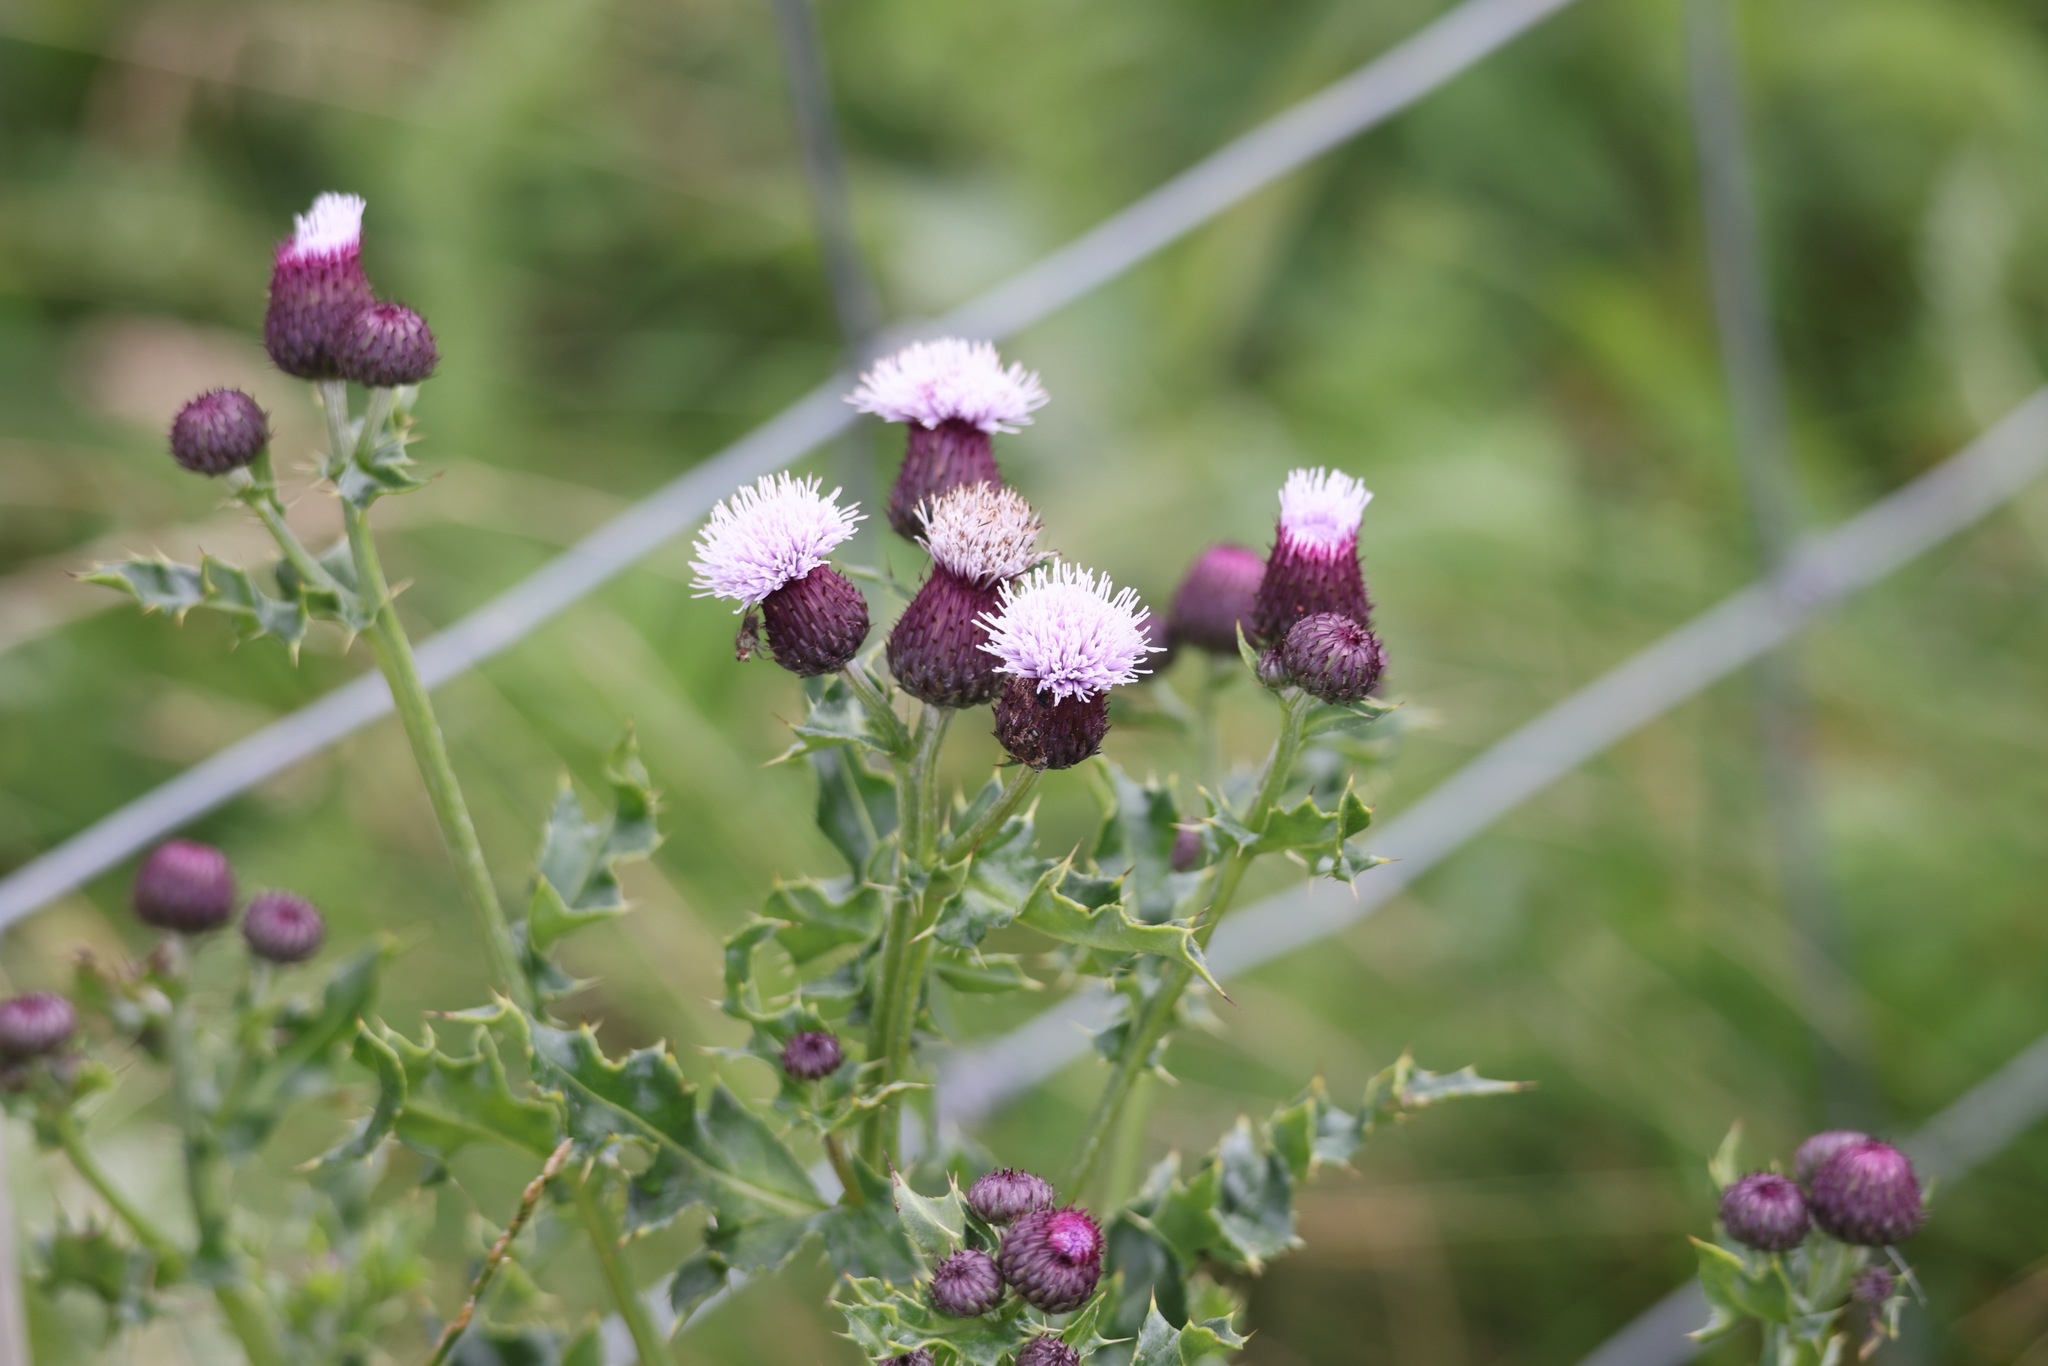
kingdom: Plantae
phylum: Tracheophyta
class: Magnoliopsida
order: Asterales
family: Asteraceae
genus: Cirsium
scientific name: Cirsium arvense
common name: Creeping thistle
